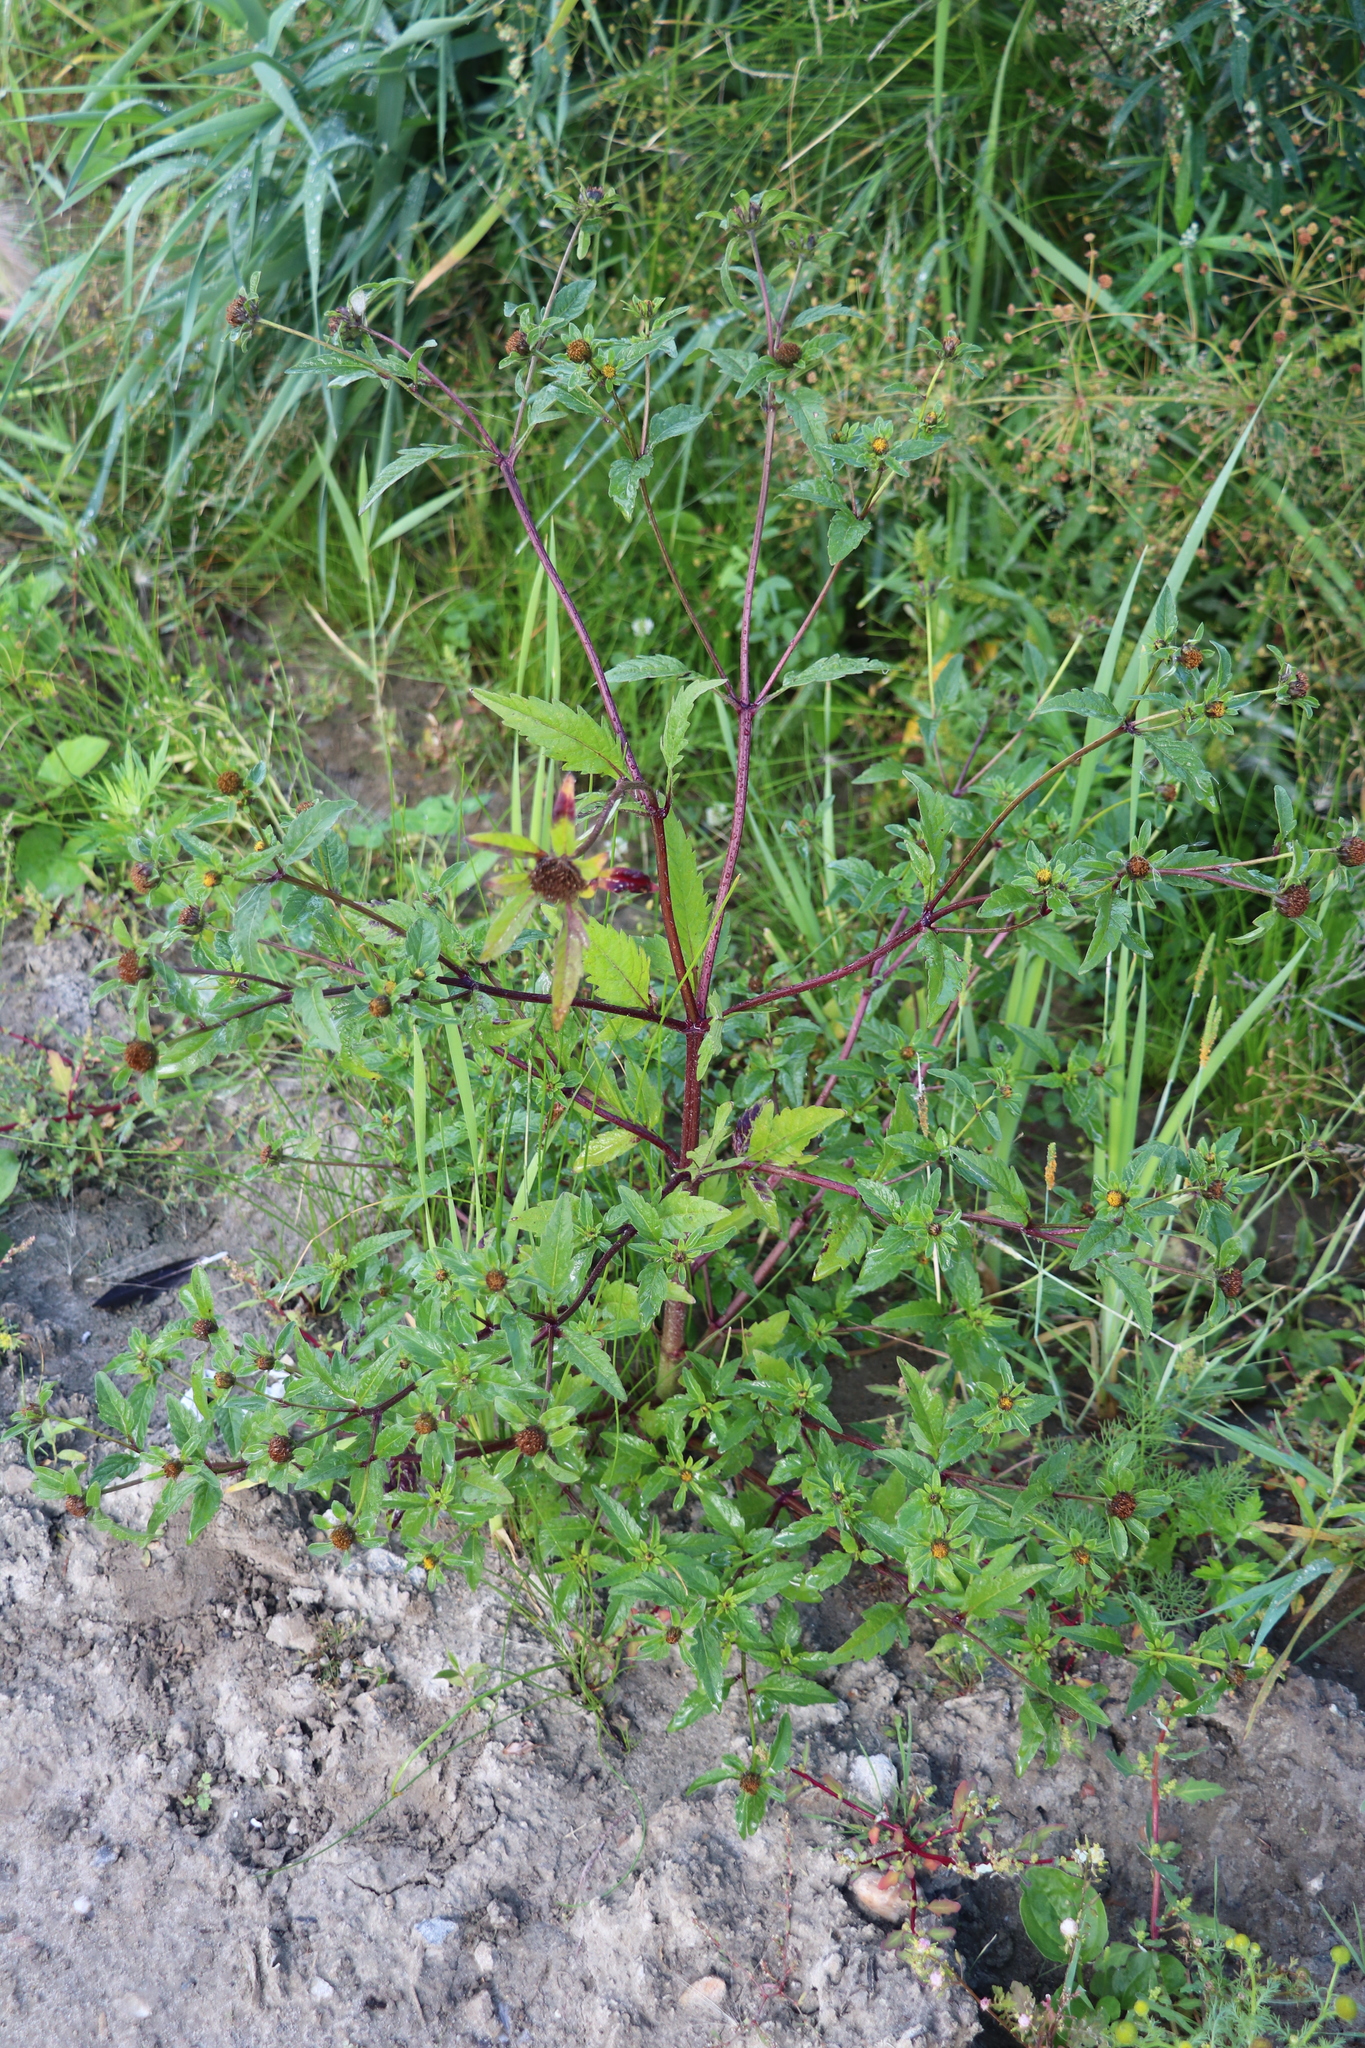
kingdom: Plantae
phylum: Tracheophyta
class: Magnoliopsida
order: Asterales
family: Asteraceae
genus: Bidens
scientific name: Bidens tripartita
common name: Trifid bur-marigold
